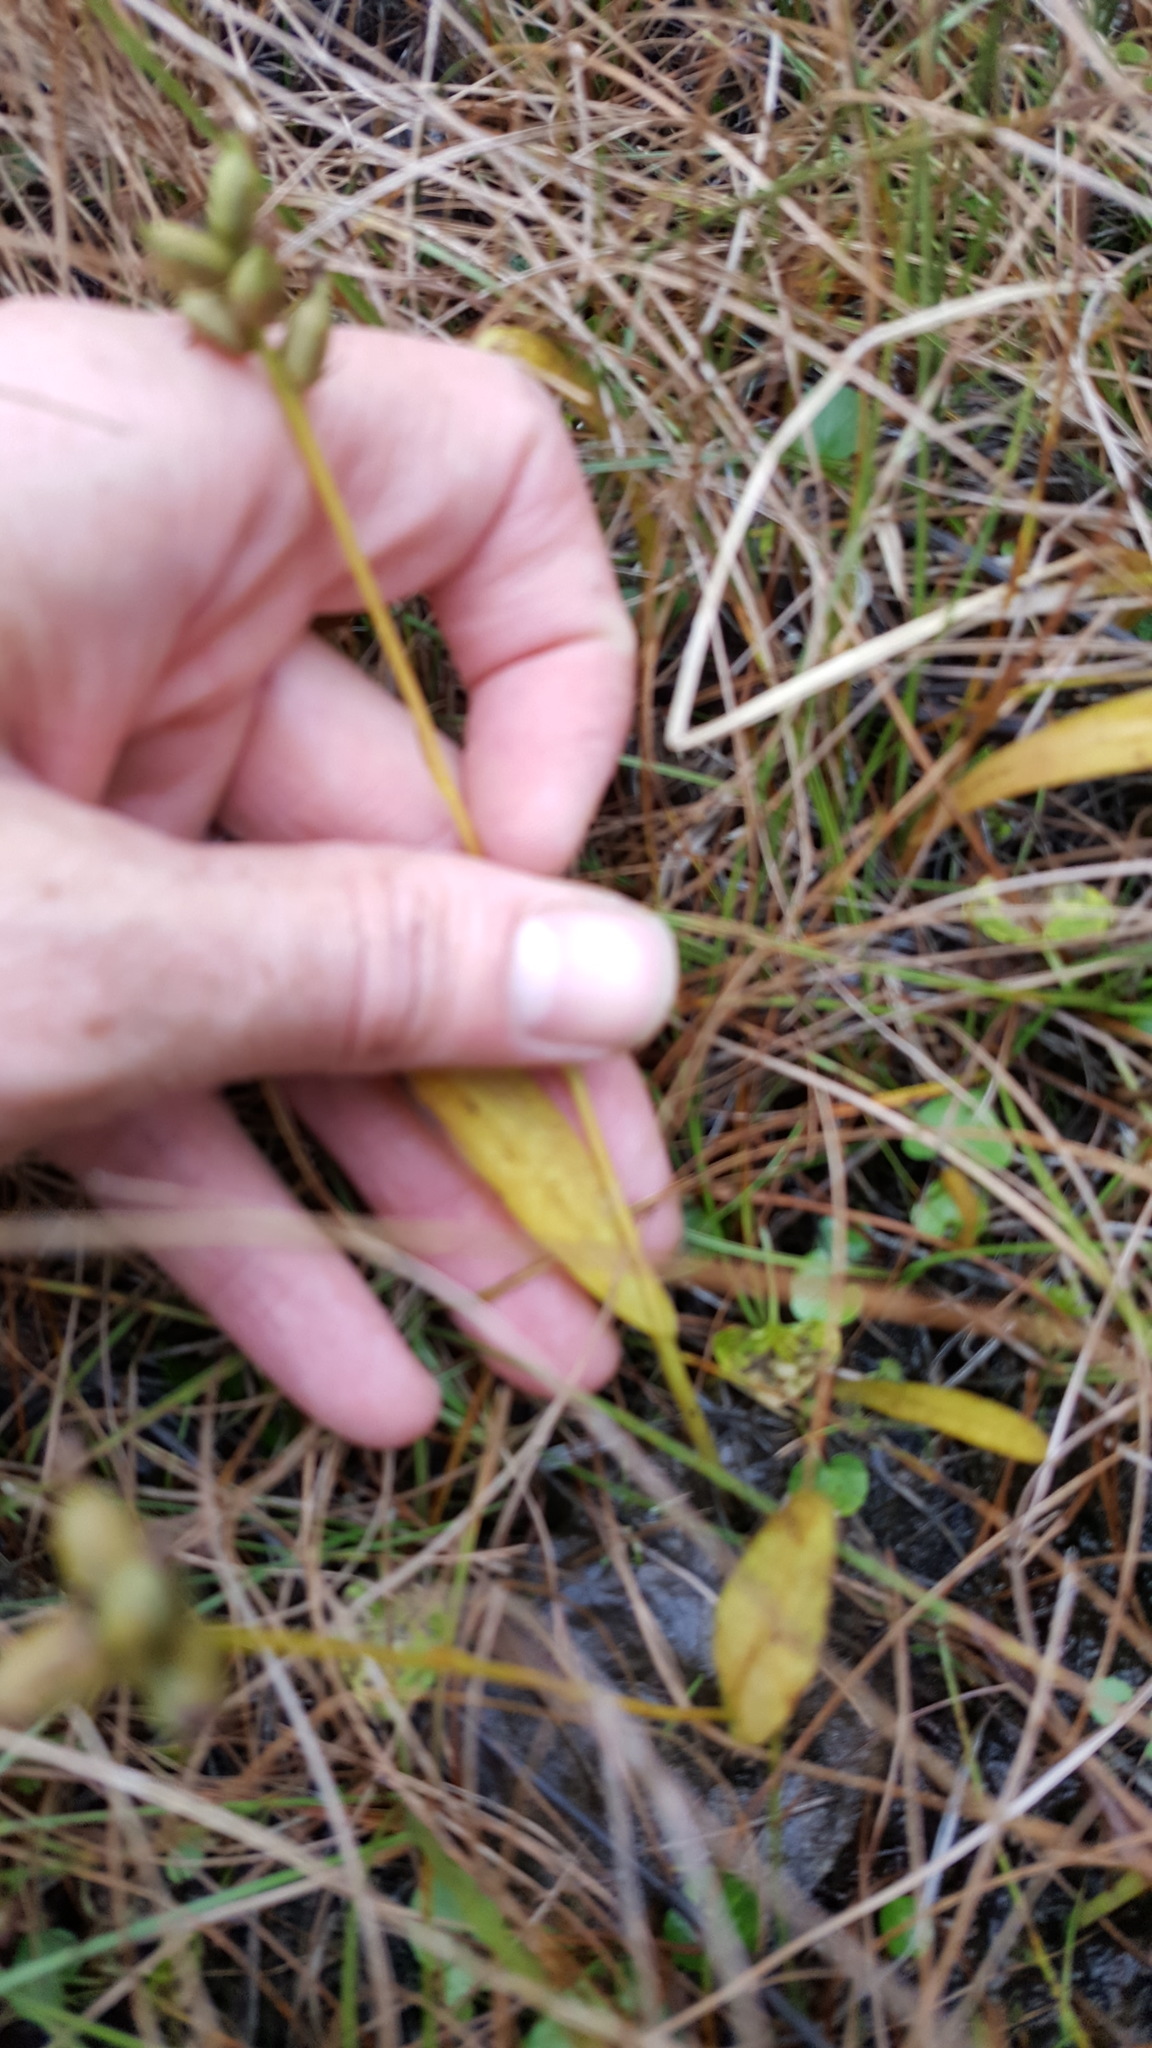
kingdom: Plantae
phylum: Tracheophyta
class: Liliopsida
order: Asparagales
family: Orchidaceae
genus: Platanthera
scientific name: Platanthera clavellata
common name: Club-spur orchid
